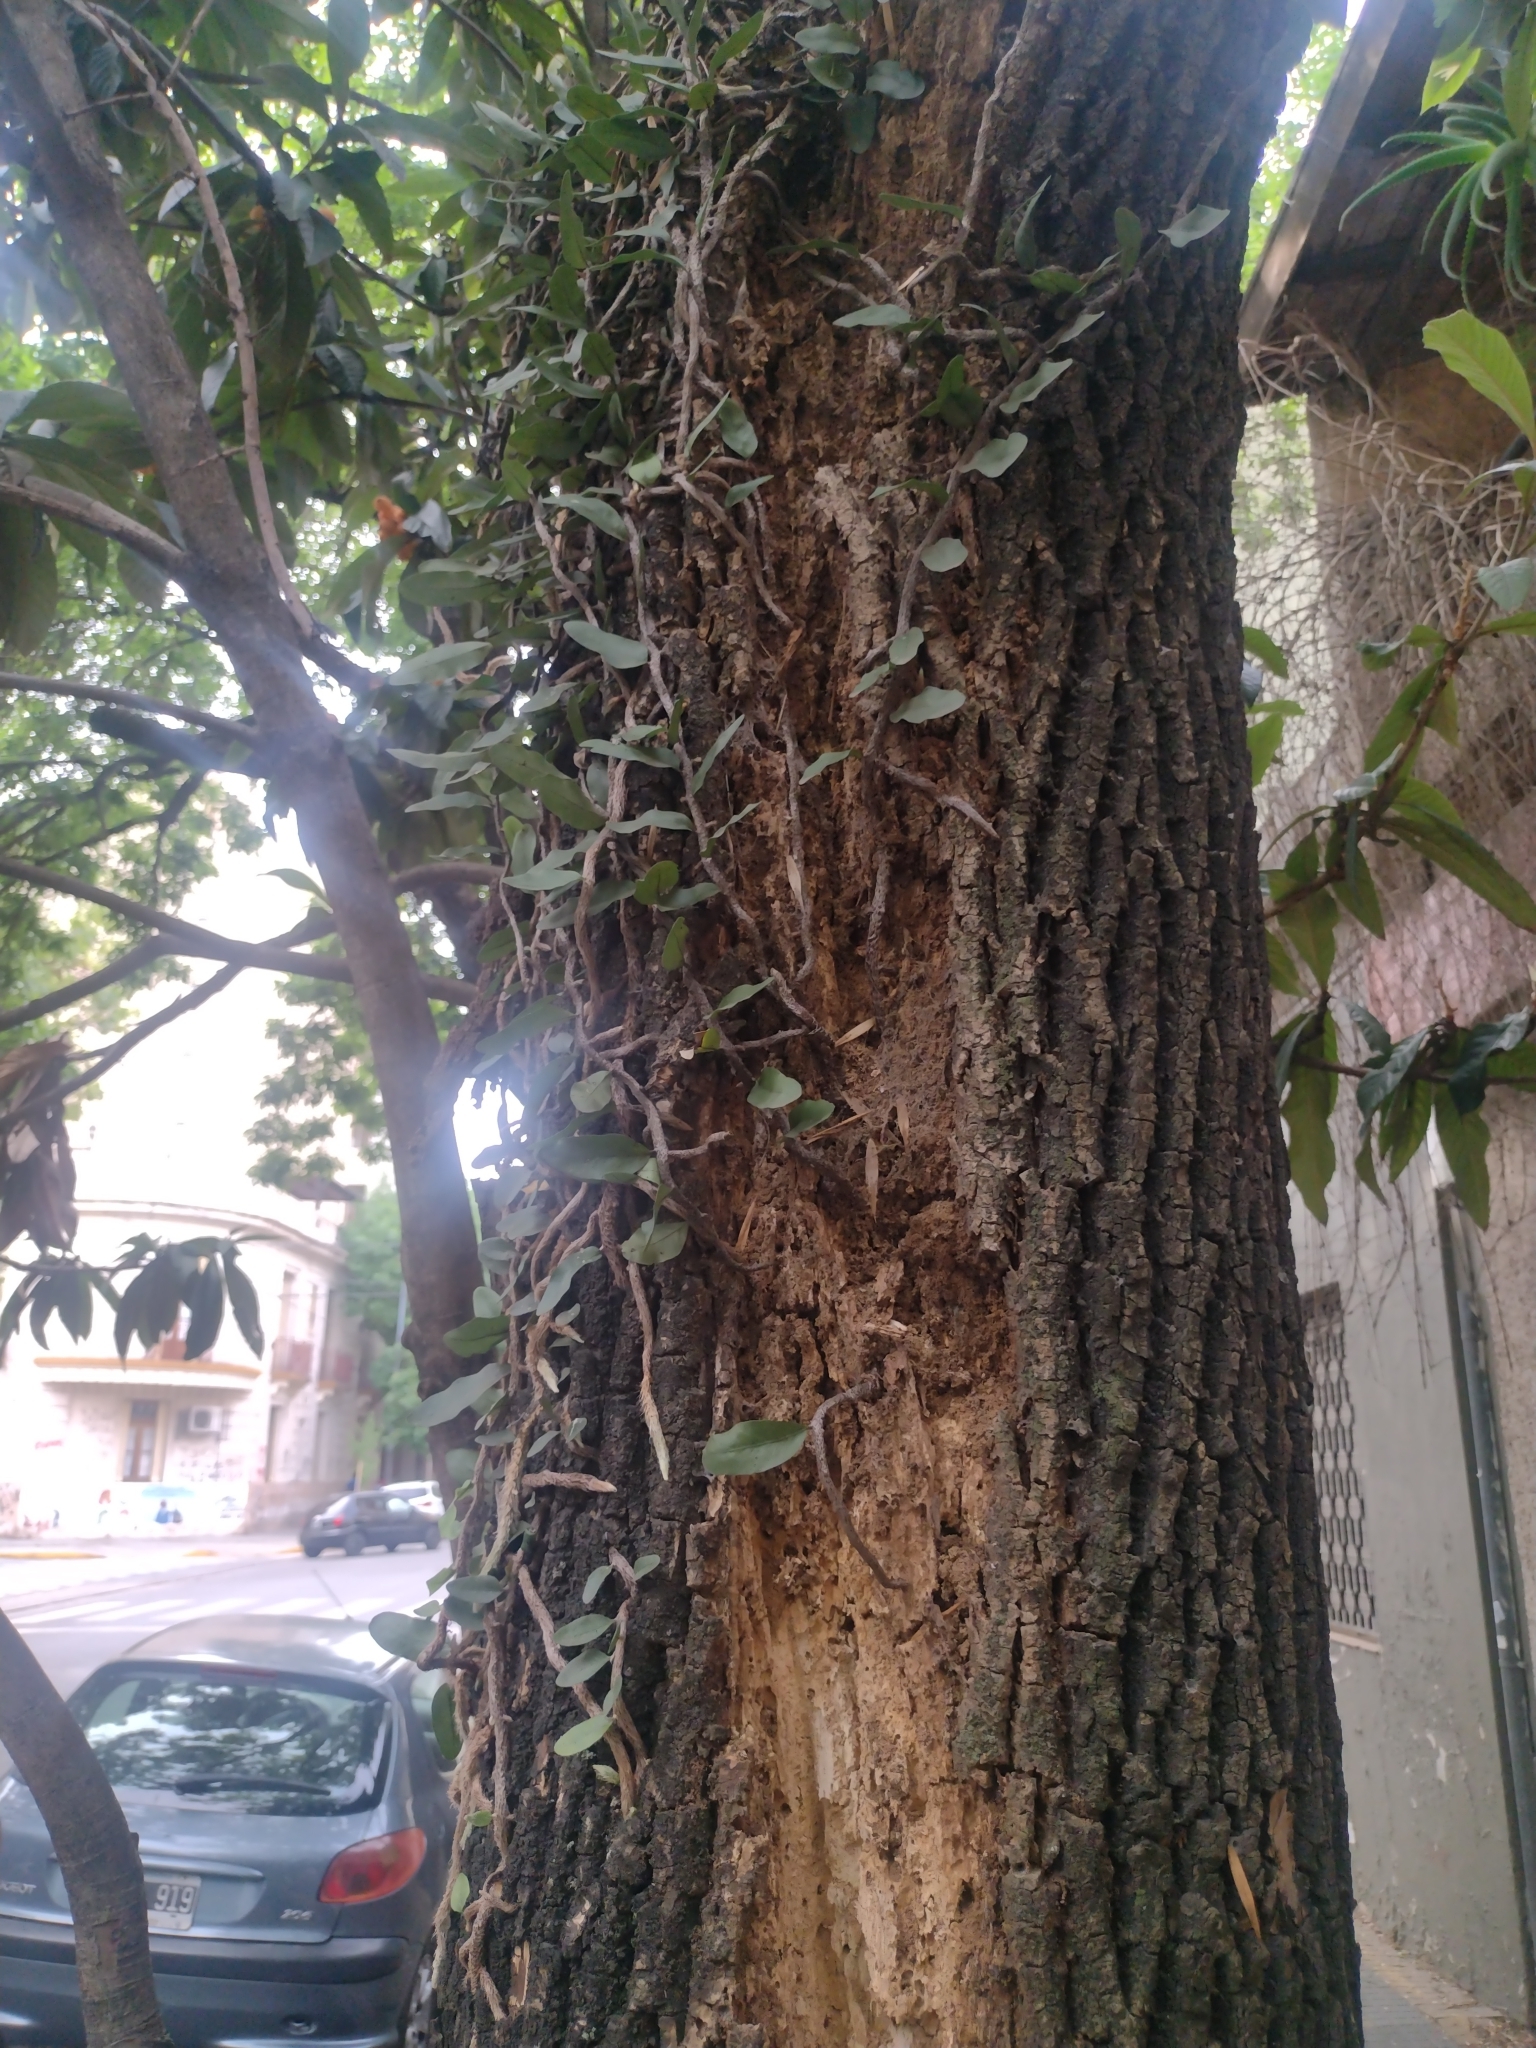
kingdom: Plantae
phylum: Tracheophyta
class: Polypodiopsida
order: Polypodiales
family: Polypodiaceae
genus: Microgramma
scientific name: Microgramma mortoniana
